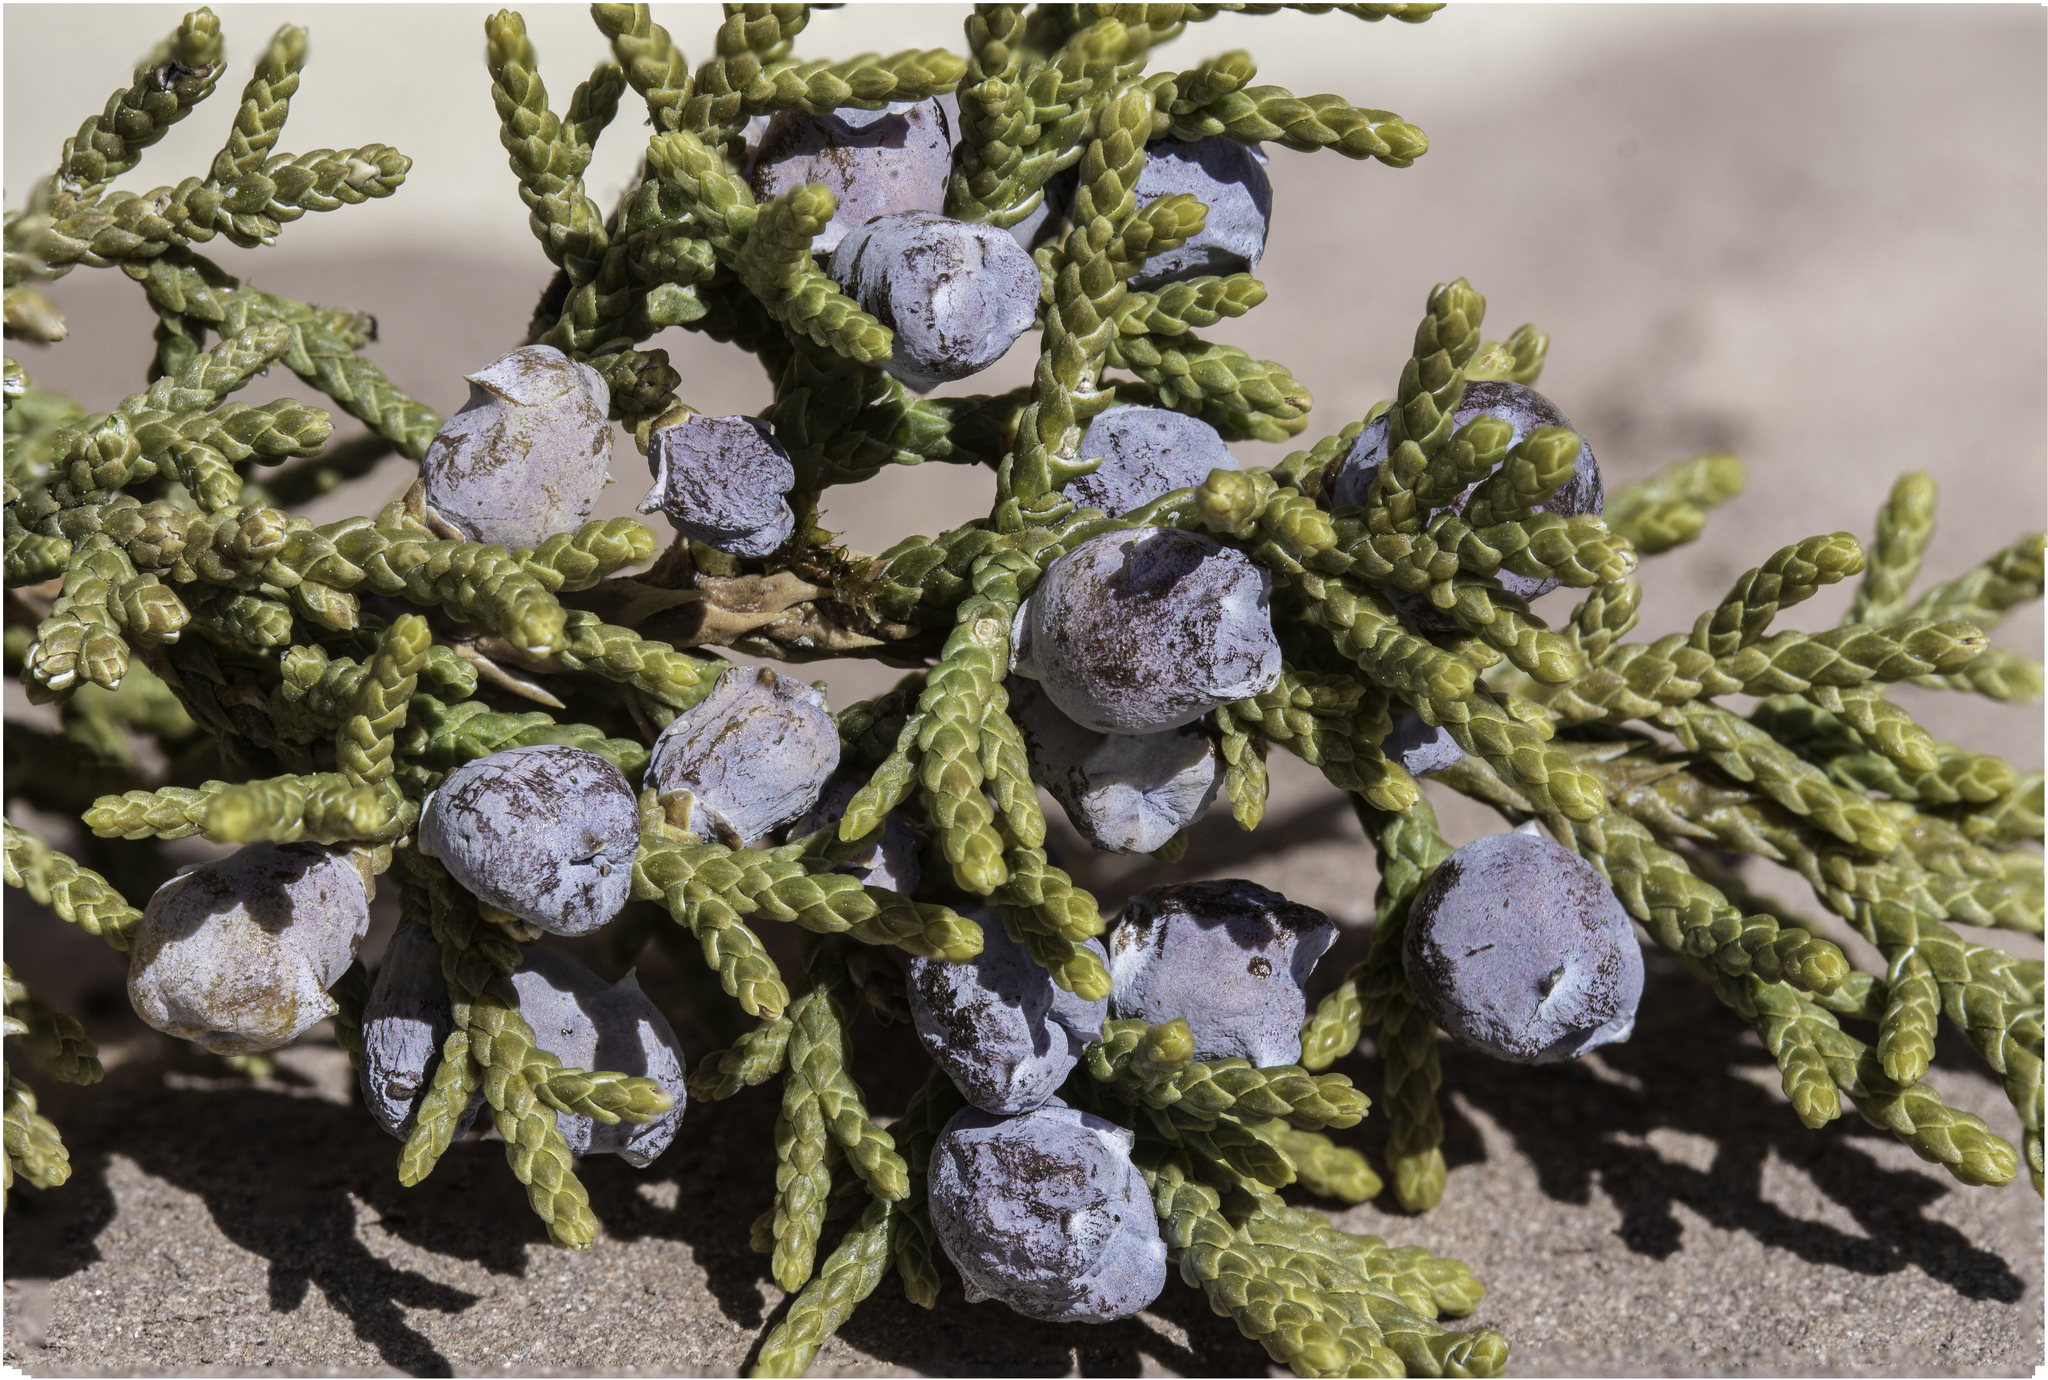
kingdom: Plantae
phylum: Tracheophyta
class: Pinopsida
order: Pinales
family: Cupressaceae
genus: Juniperus
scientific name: Juniperus monosperma
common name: One-seed juniper
